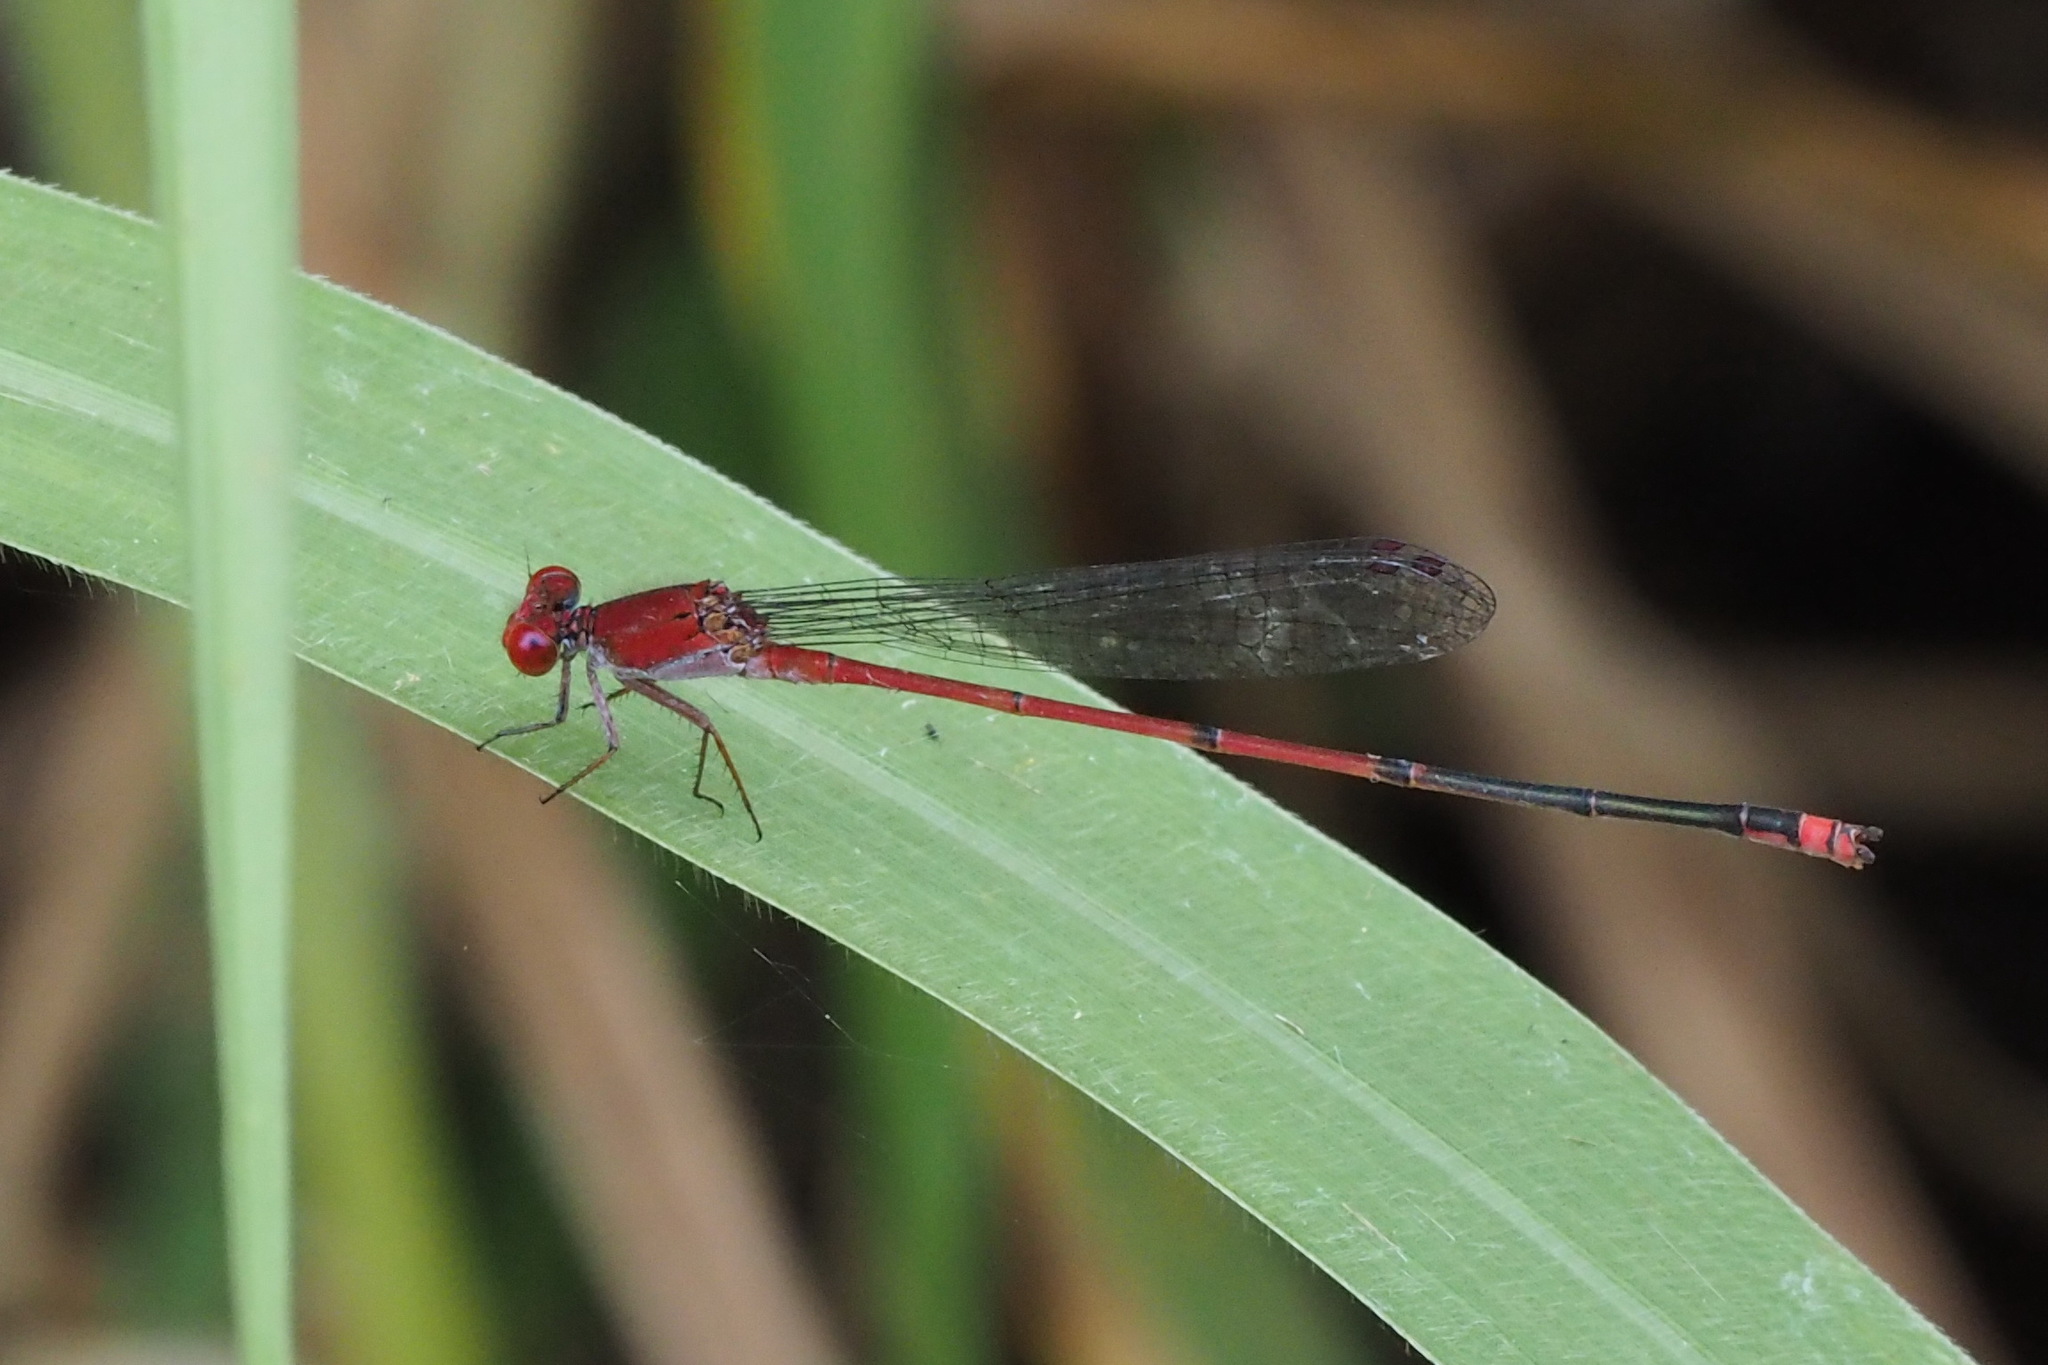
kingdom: Animalia
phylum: Arthropoda
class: Insecta
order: Odonata
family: Coenagrionidae
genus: Pseudagrion
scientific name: Pseudagrion pilidorsum
